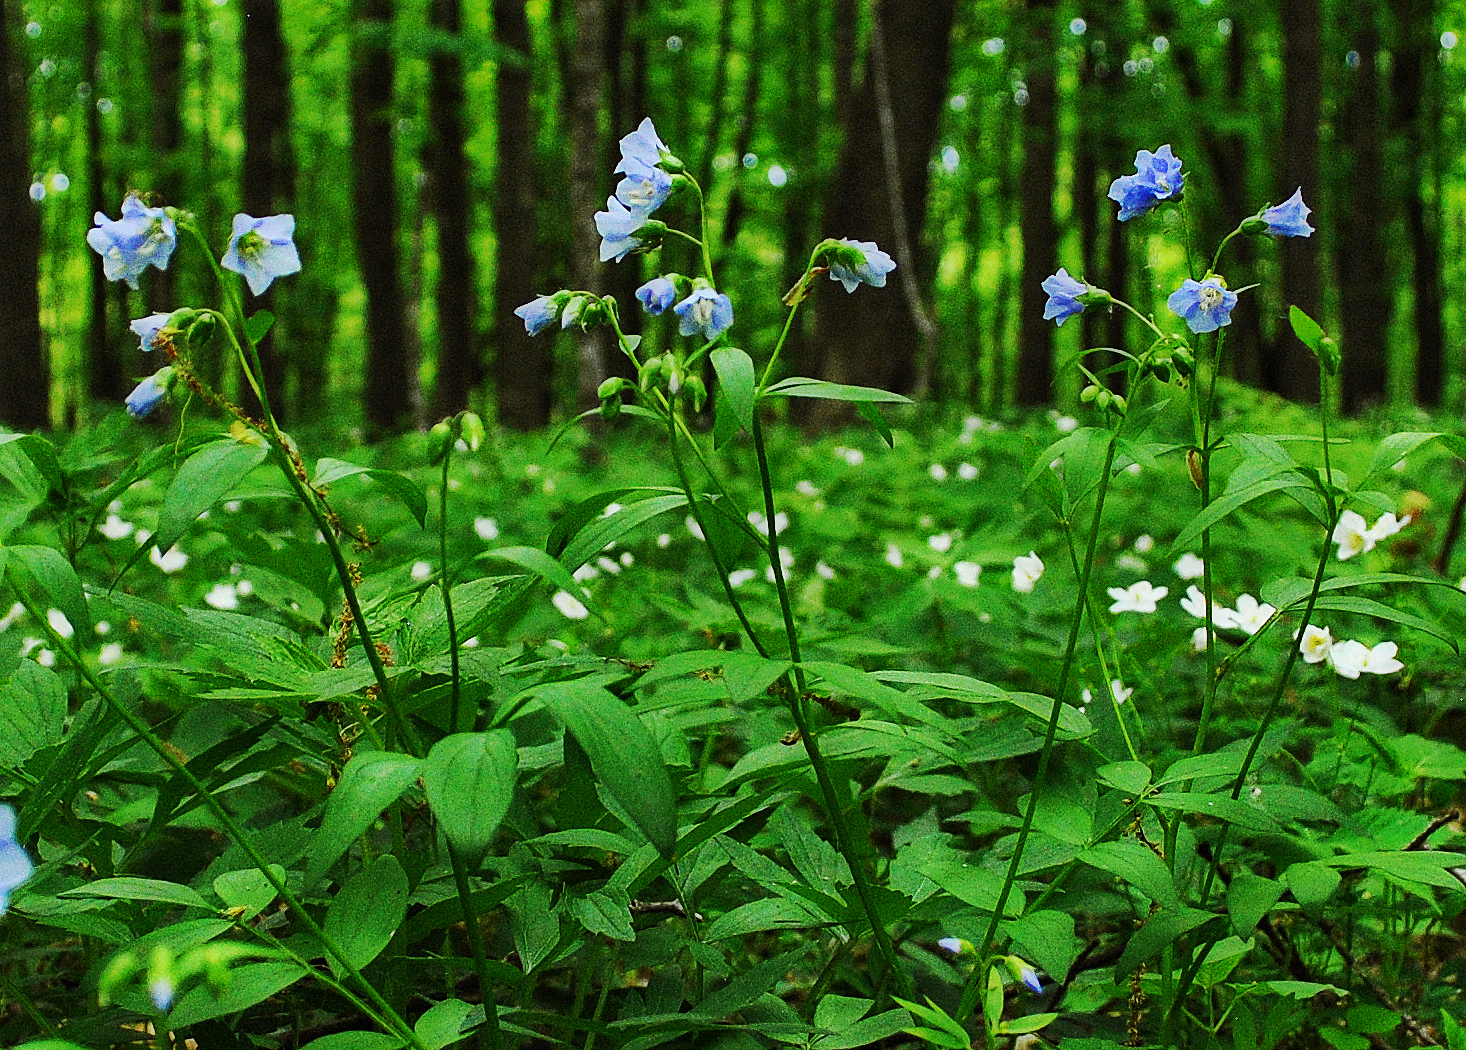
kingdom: Plantae
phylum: Tracheophyta
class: Magnoliopsida
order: Ericales
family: Polemoniaceae
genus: Polemonium
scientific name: Polemonium reptans
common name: Creeping jacob's-ladder
